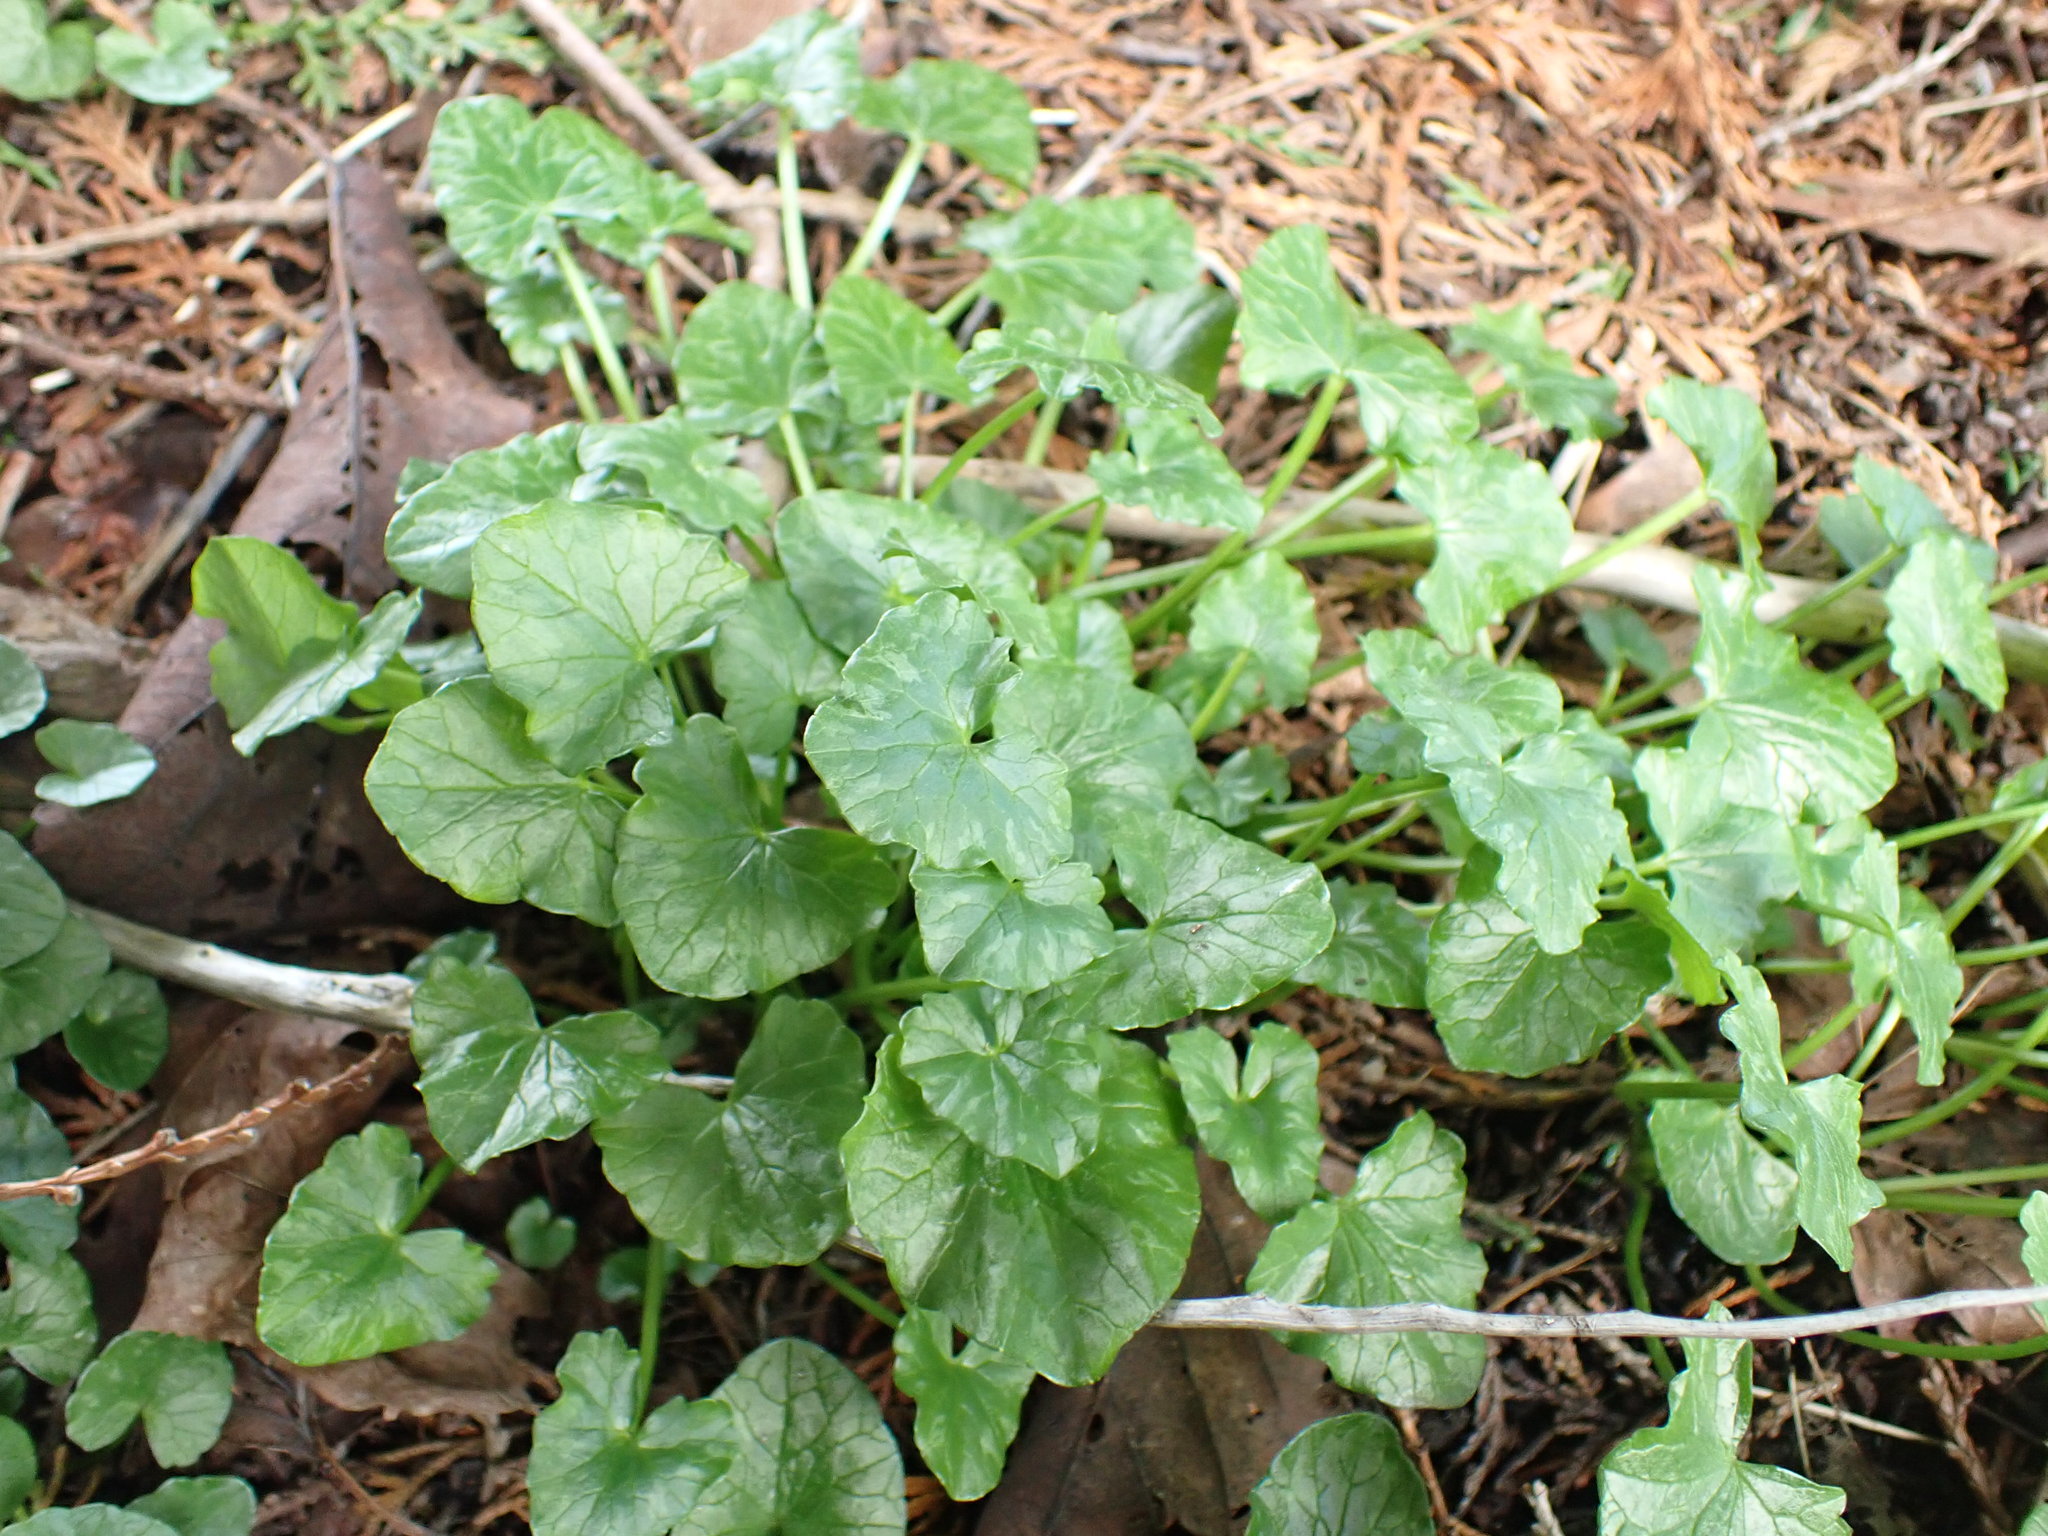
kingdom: Plantae
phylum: Tracheophyta
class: Magnoliopsida
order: Ranunculales
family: Ranunculaceae
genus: Ficaria
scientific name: Ficaria verna
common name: Lesser celandine
